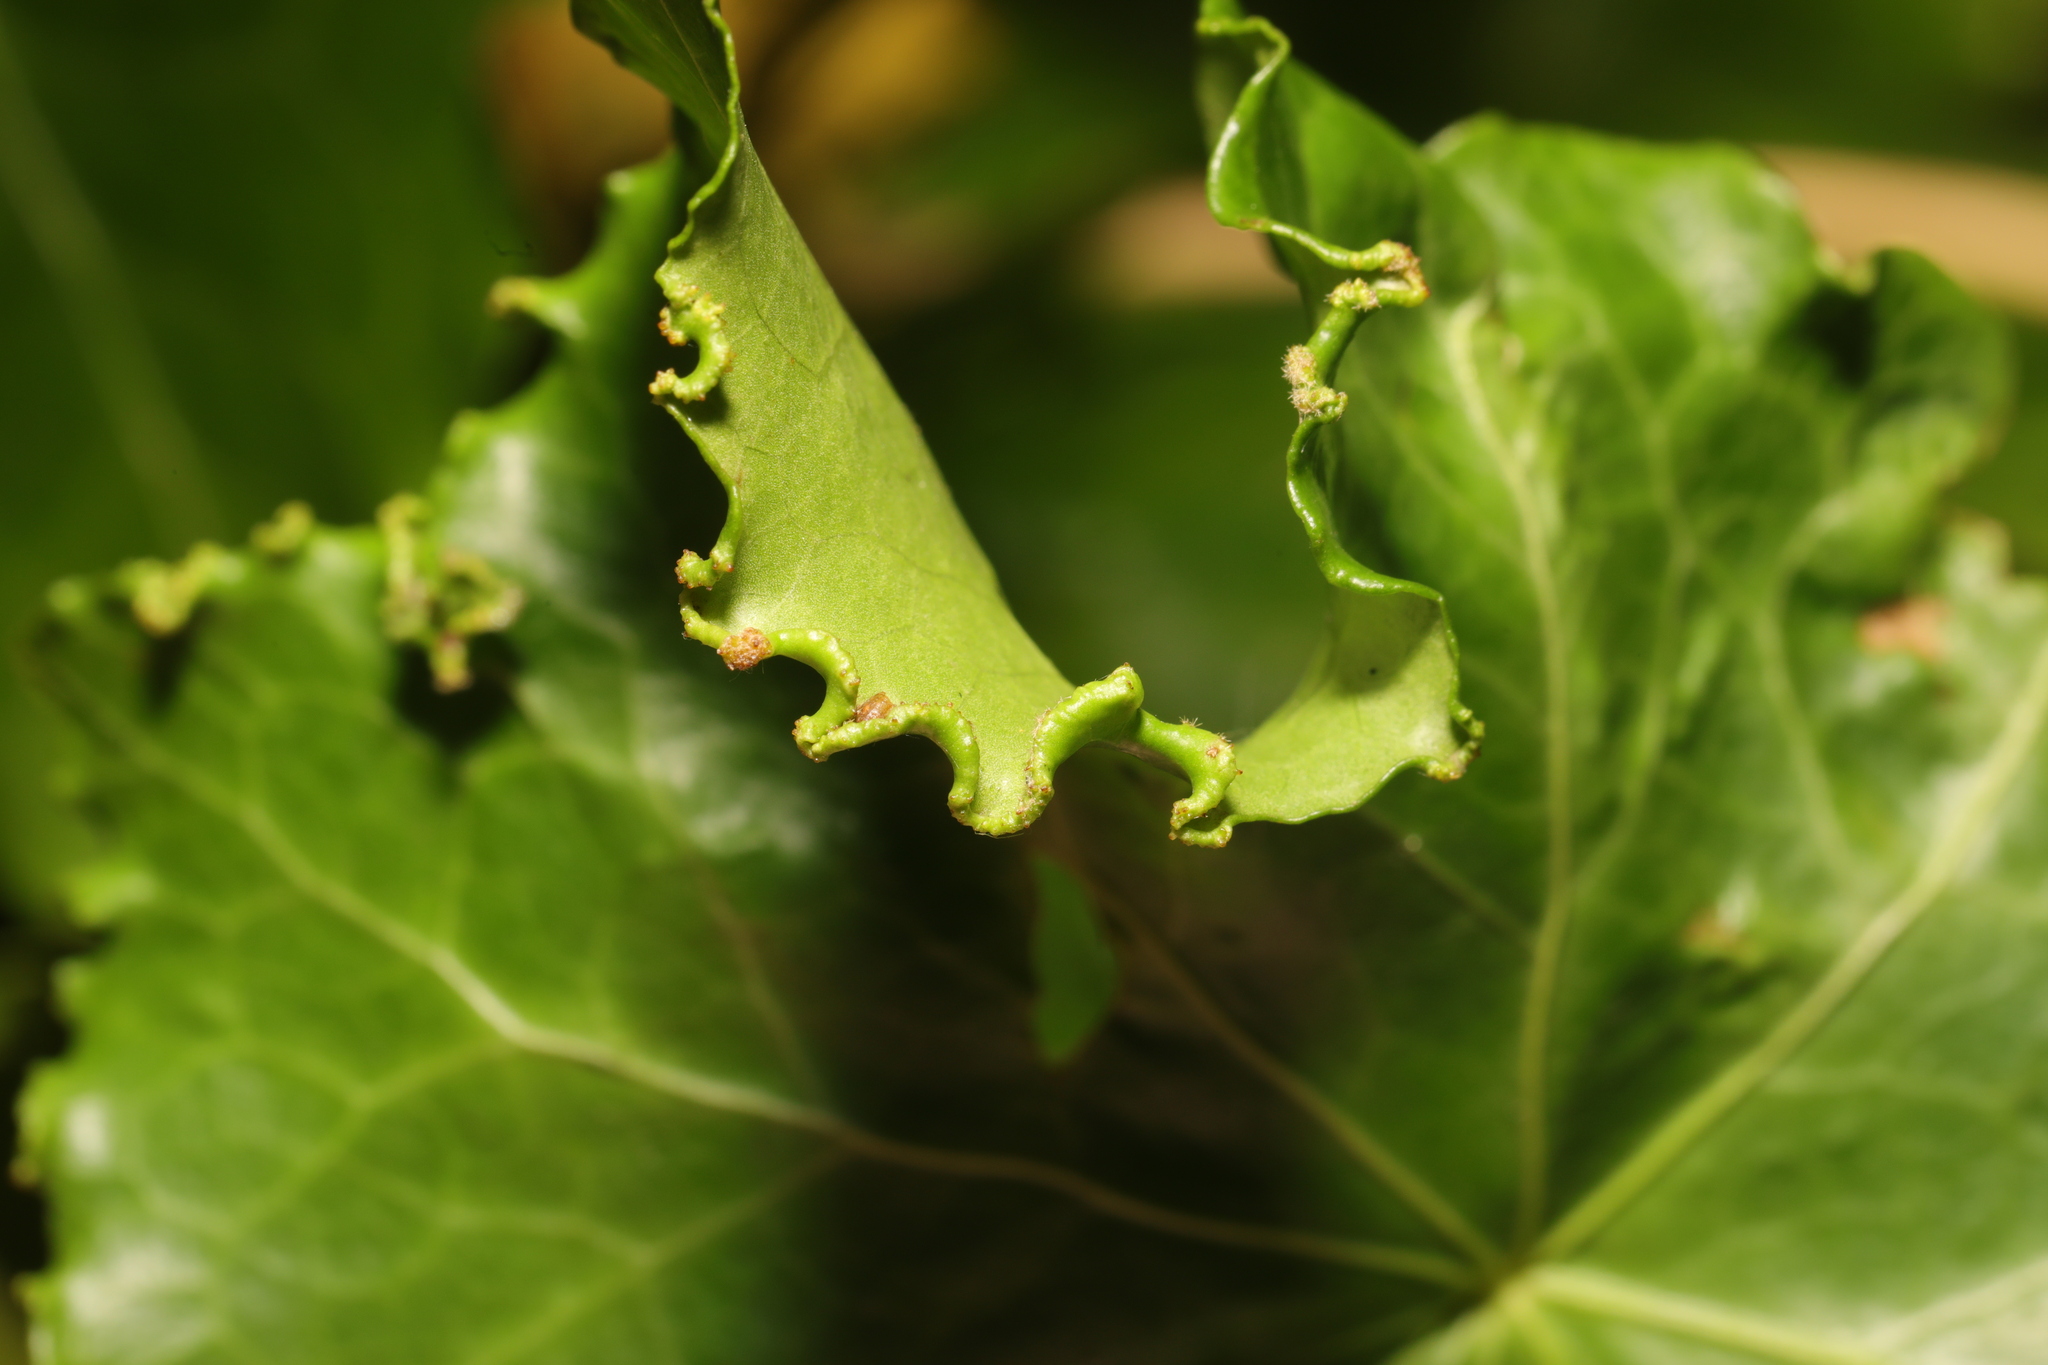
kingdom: Plantae
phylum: Tracheophyta
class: Magnoliopsida
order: Apiales
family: Araliaceae
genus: Hedera
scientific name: Hedera helix
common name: Ivy
